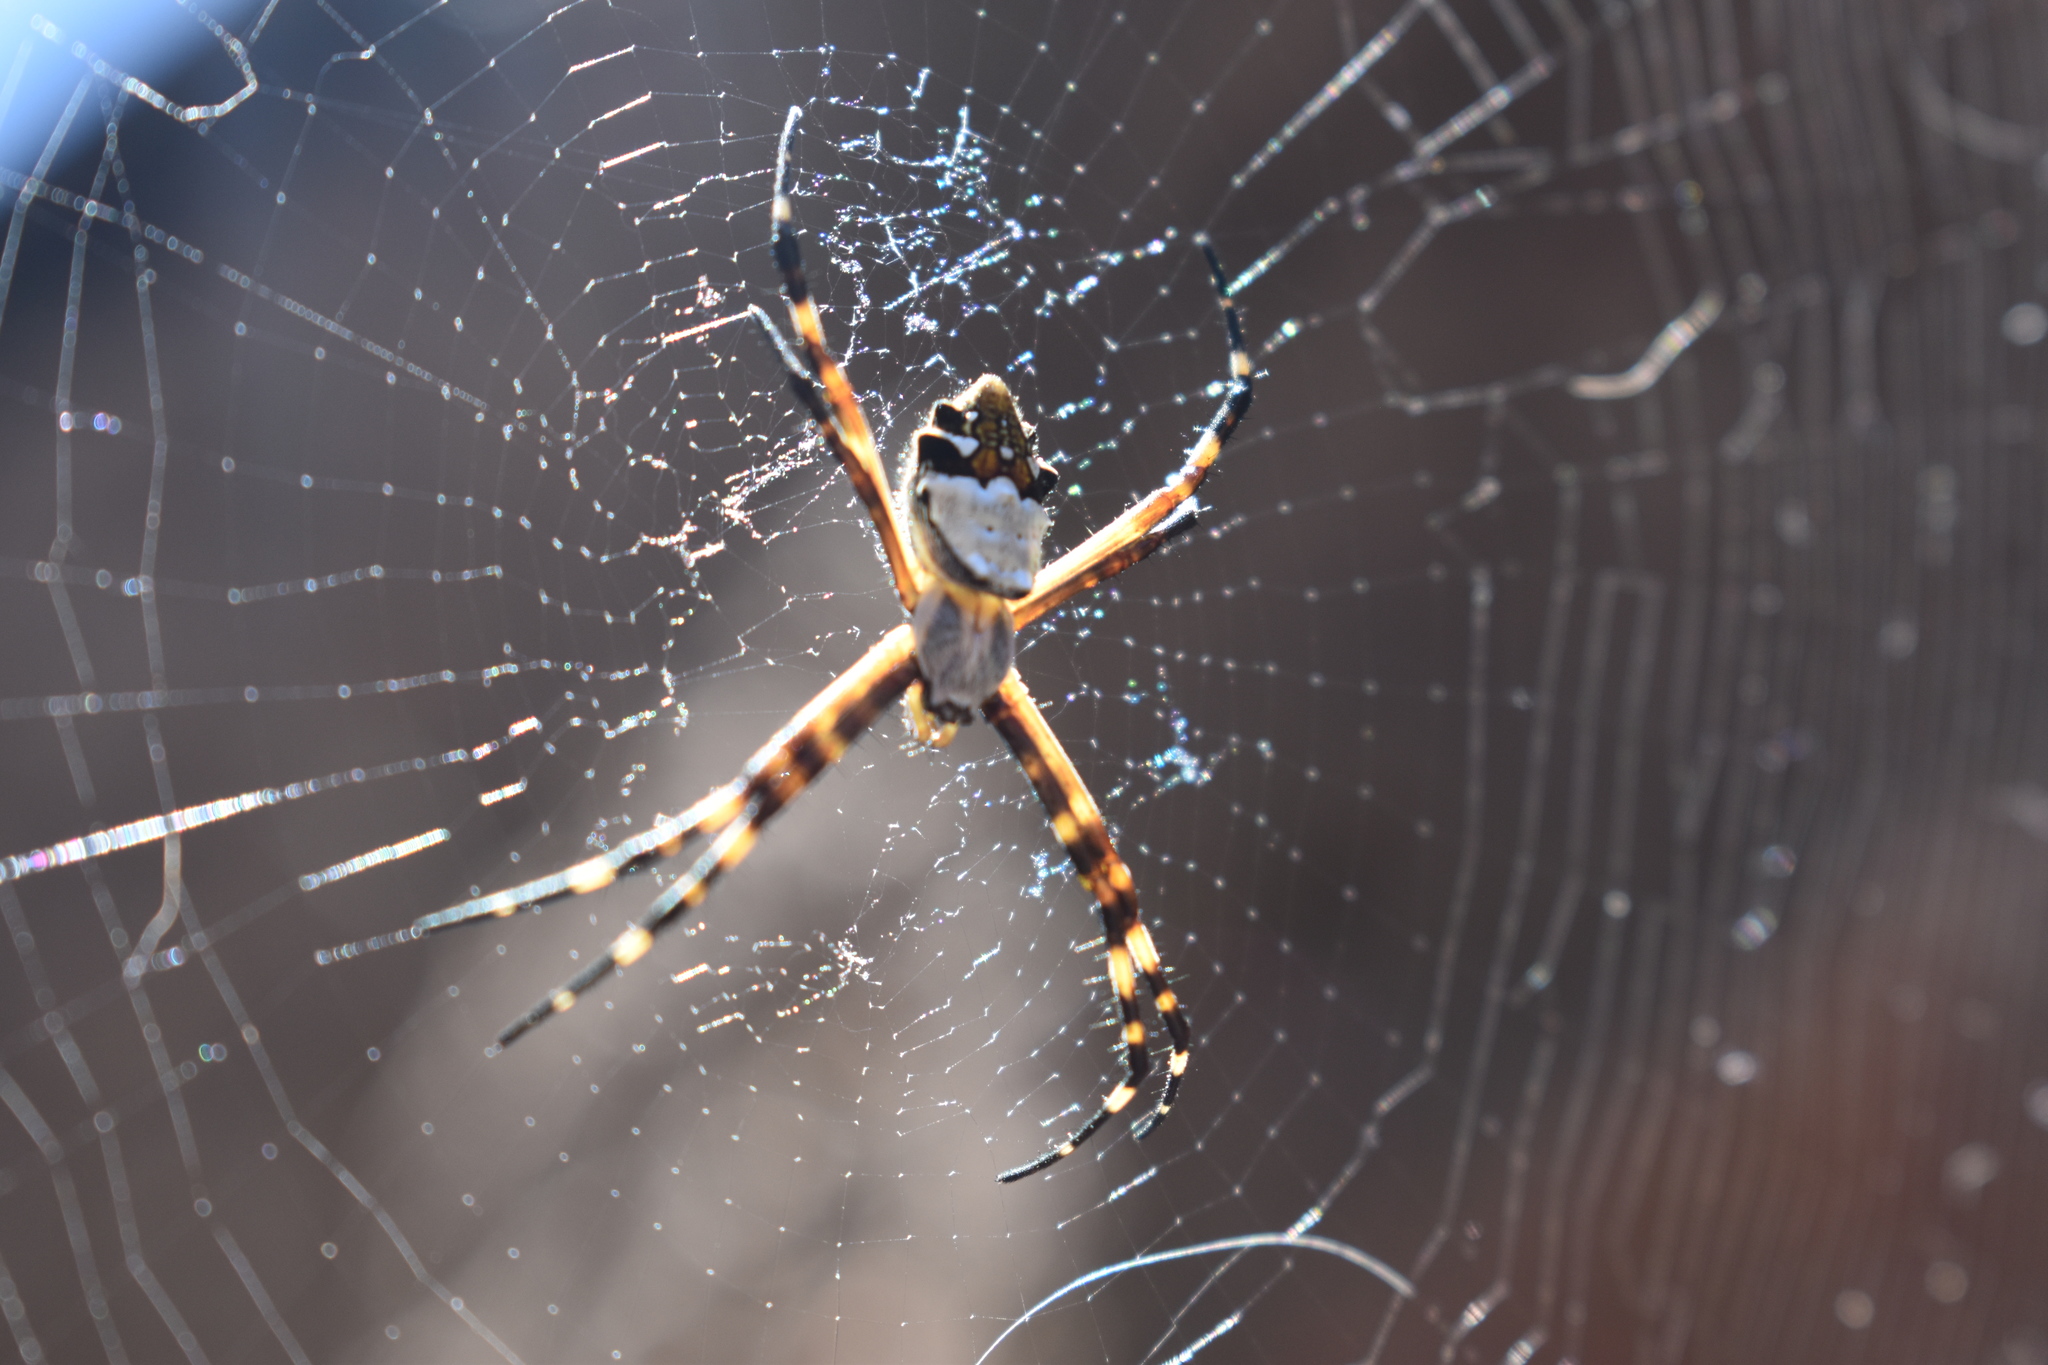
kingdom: Animalia
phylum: Arthropoda
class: Arachnida
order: Araneae
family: Araneidae
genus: Argiope
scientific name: Argiope argentata
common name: Orb weavers
